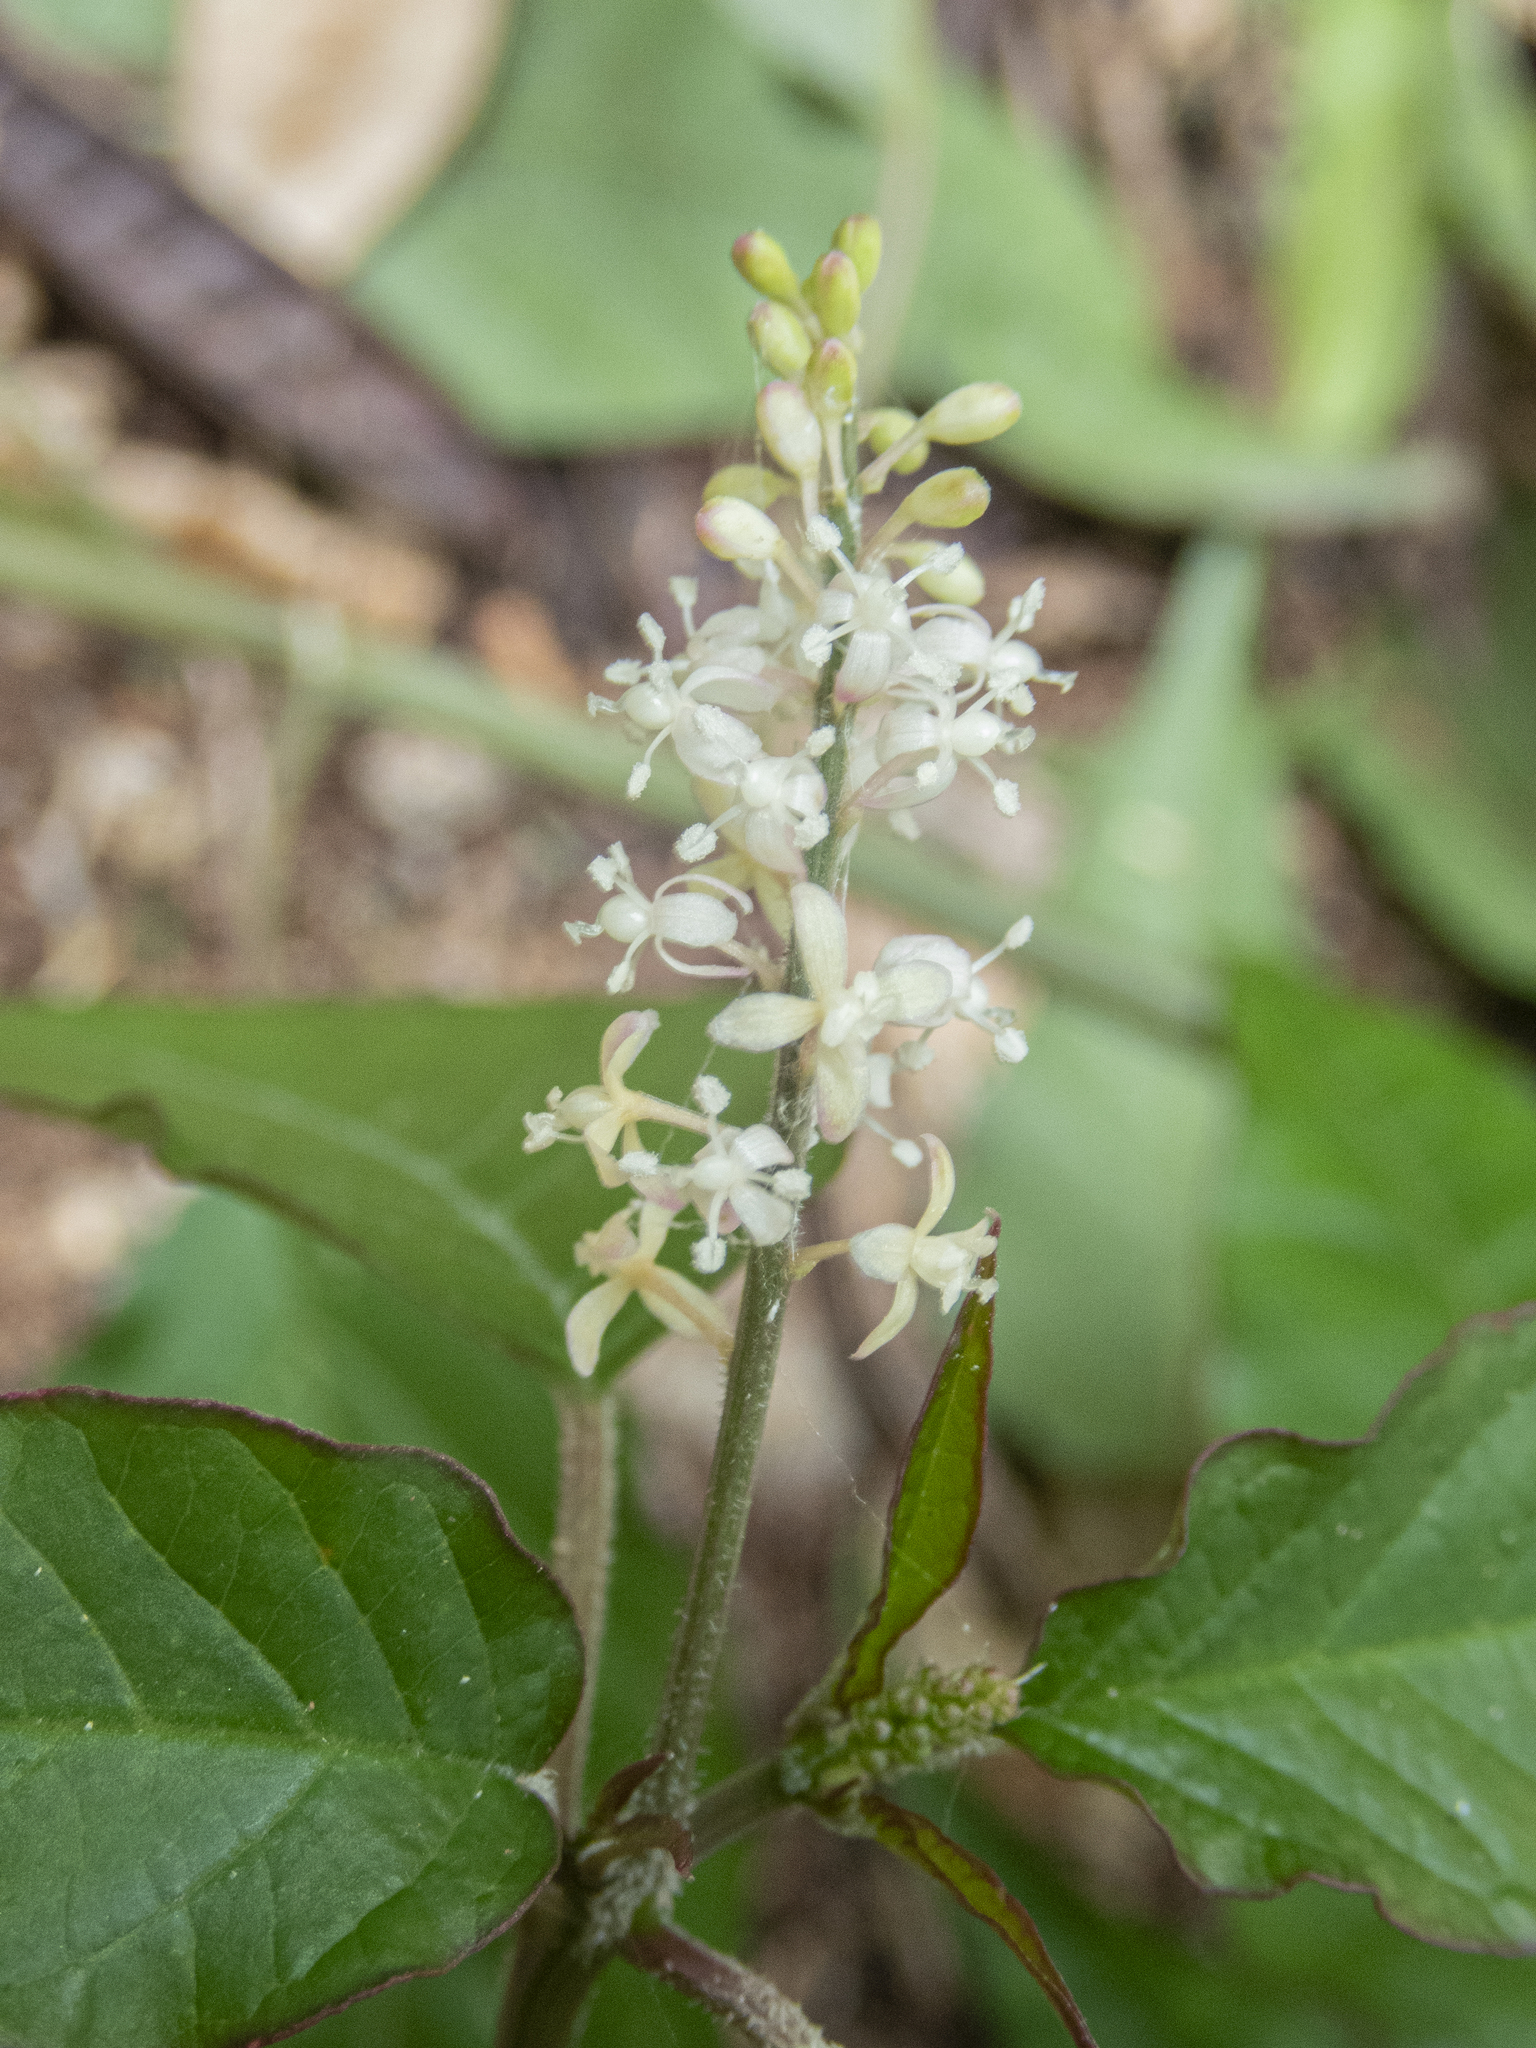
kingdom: Plantae
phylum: Tracheophyta
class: Magnoliopsida
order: Caryophyllales
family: Phytolaccaceae
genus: Rivina
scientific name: Rivina humilis
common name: Rougeplant
